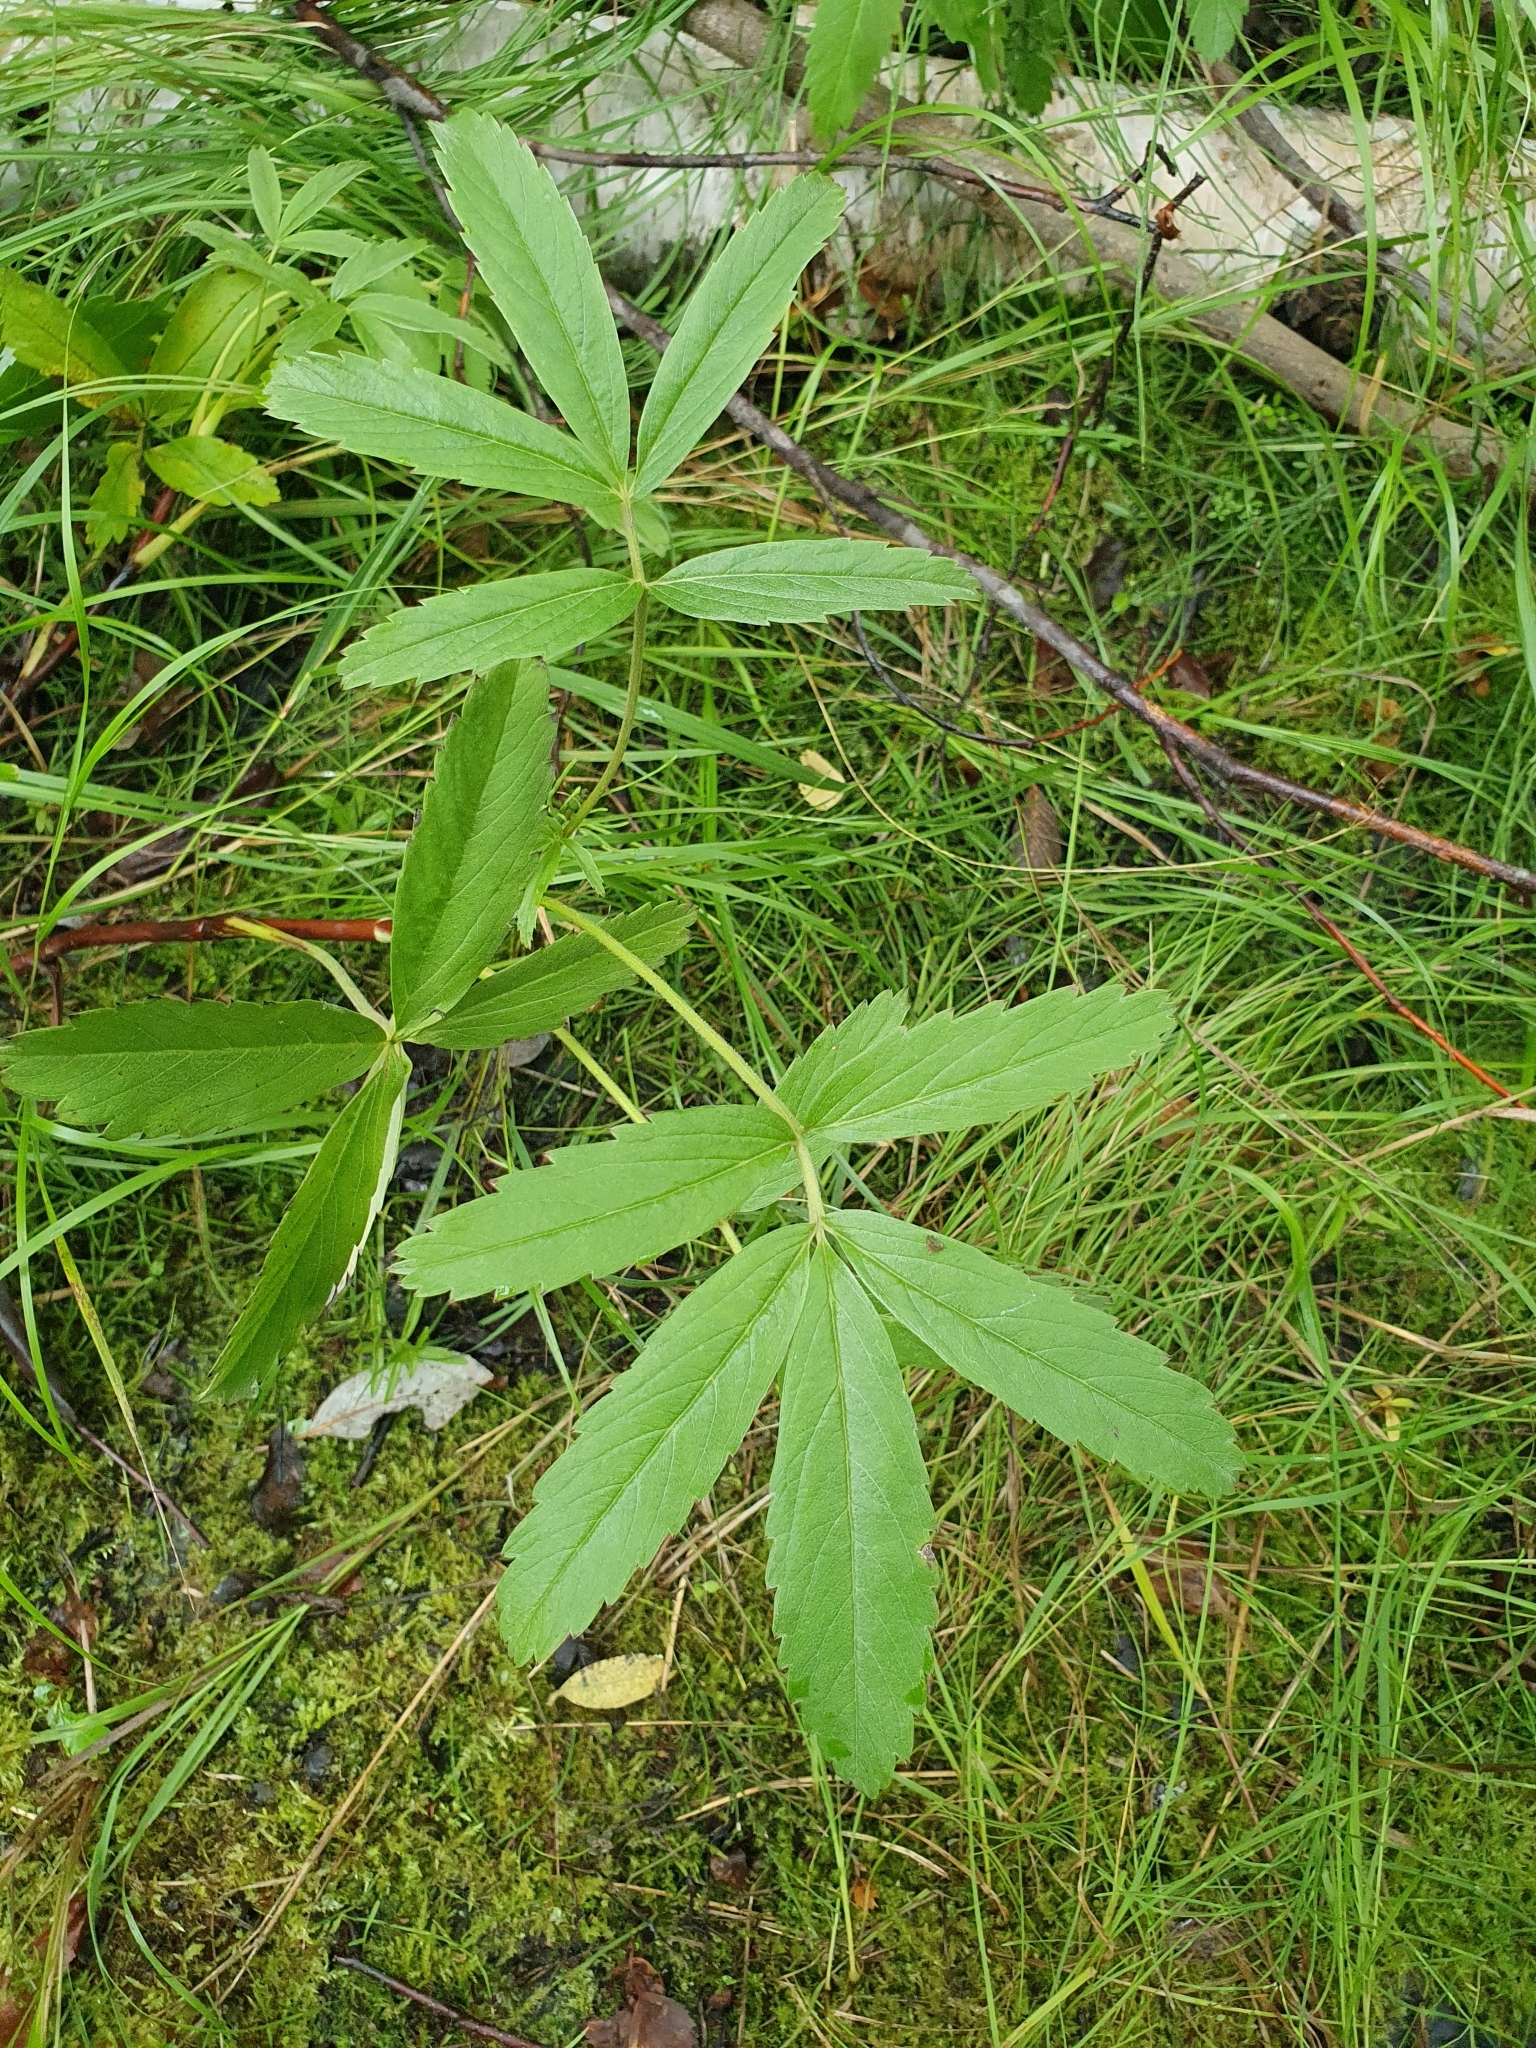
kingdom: Plantae
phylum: Tracheophyta
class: Magnoliopsida
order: Rosales
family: Rosaceae
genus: Comarum
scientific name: Comarum palustre
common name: Marsh cinquefoil
